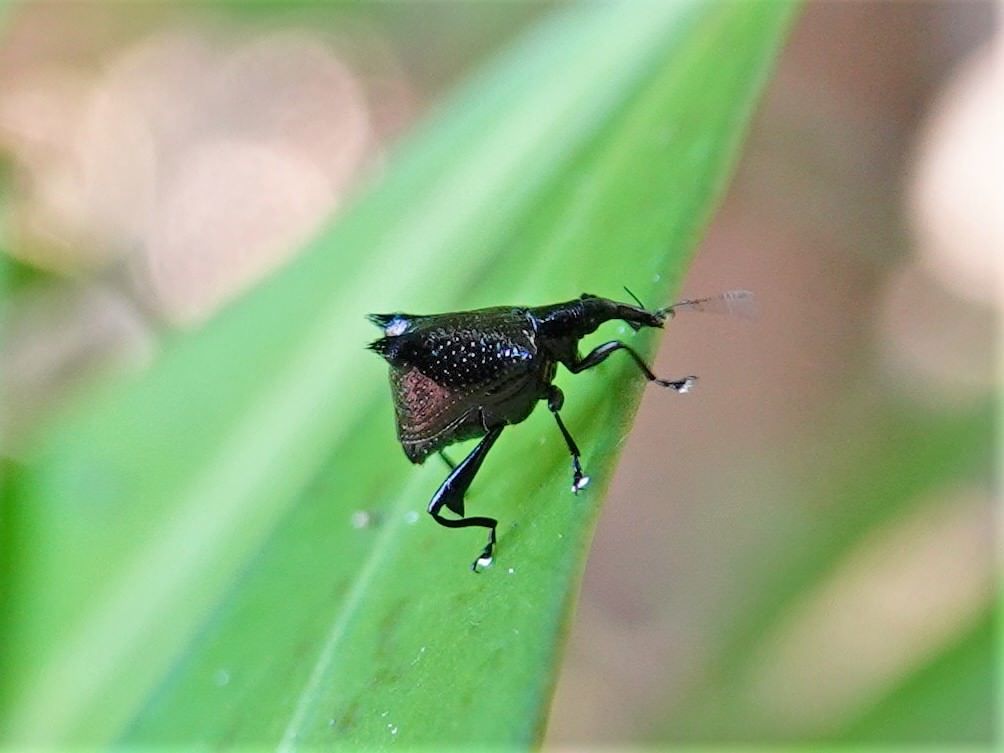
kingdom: Animalia
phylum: Arthropoda
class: Insecta
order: Coleoptera
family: Curculionidae
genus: Scolopterus
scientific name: Scolopterus penicillatus
